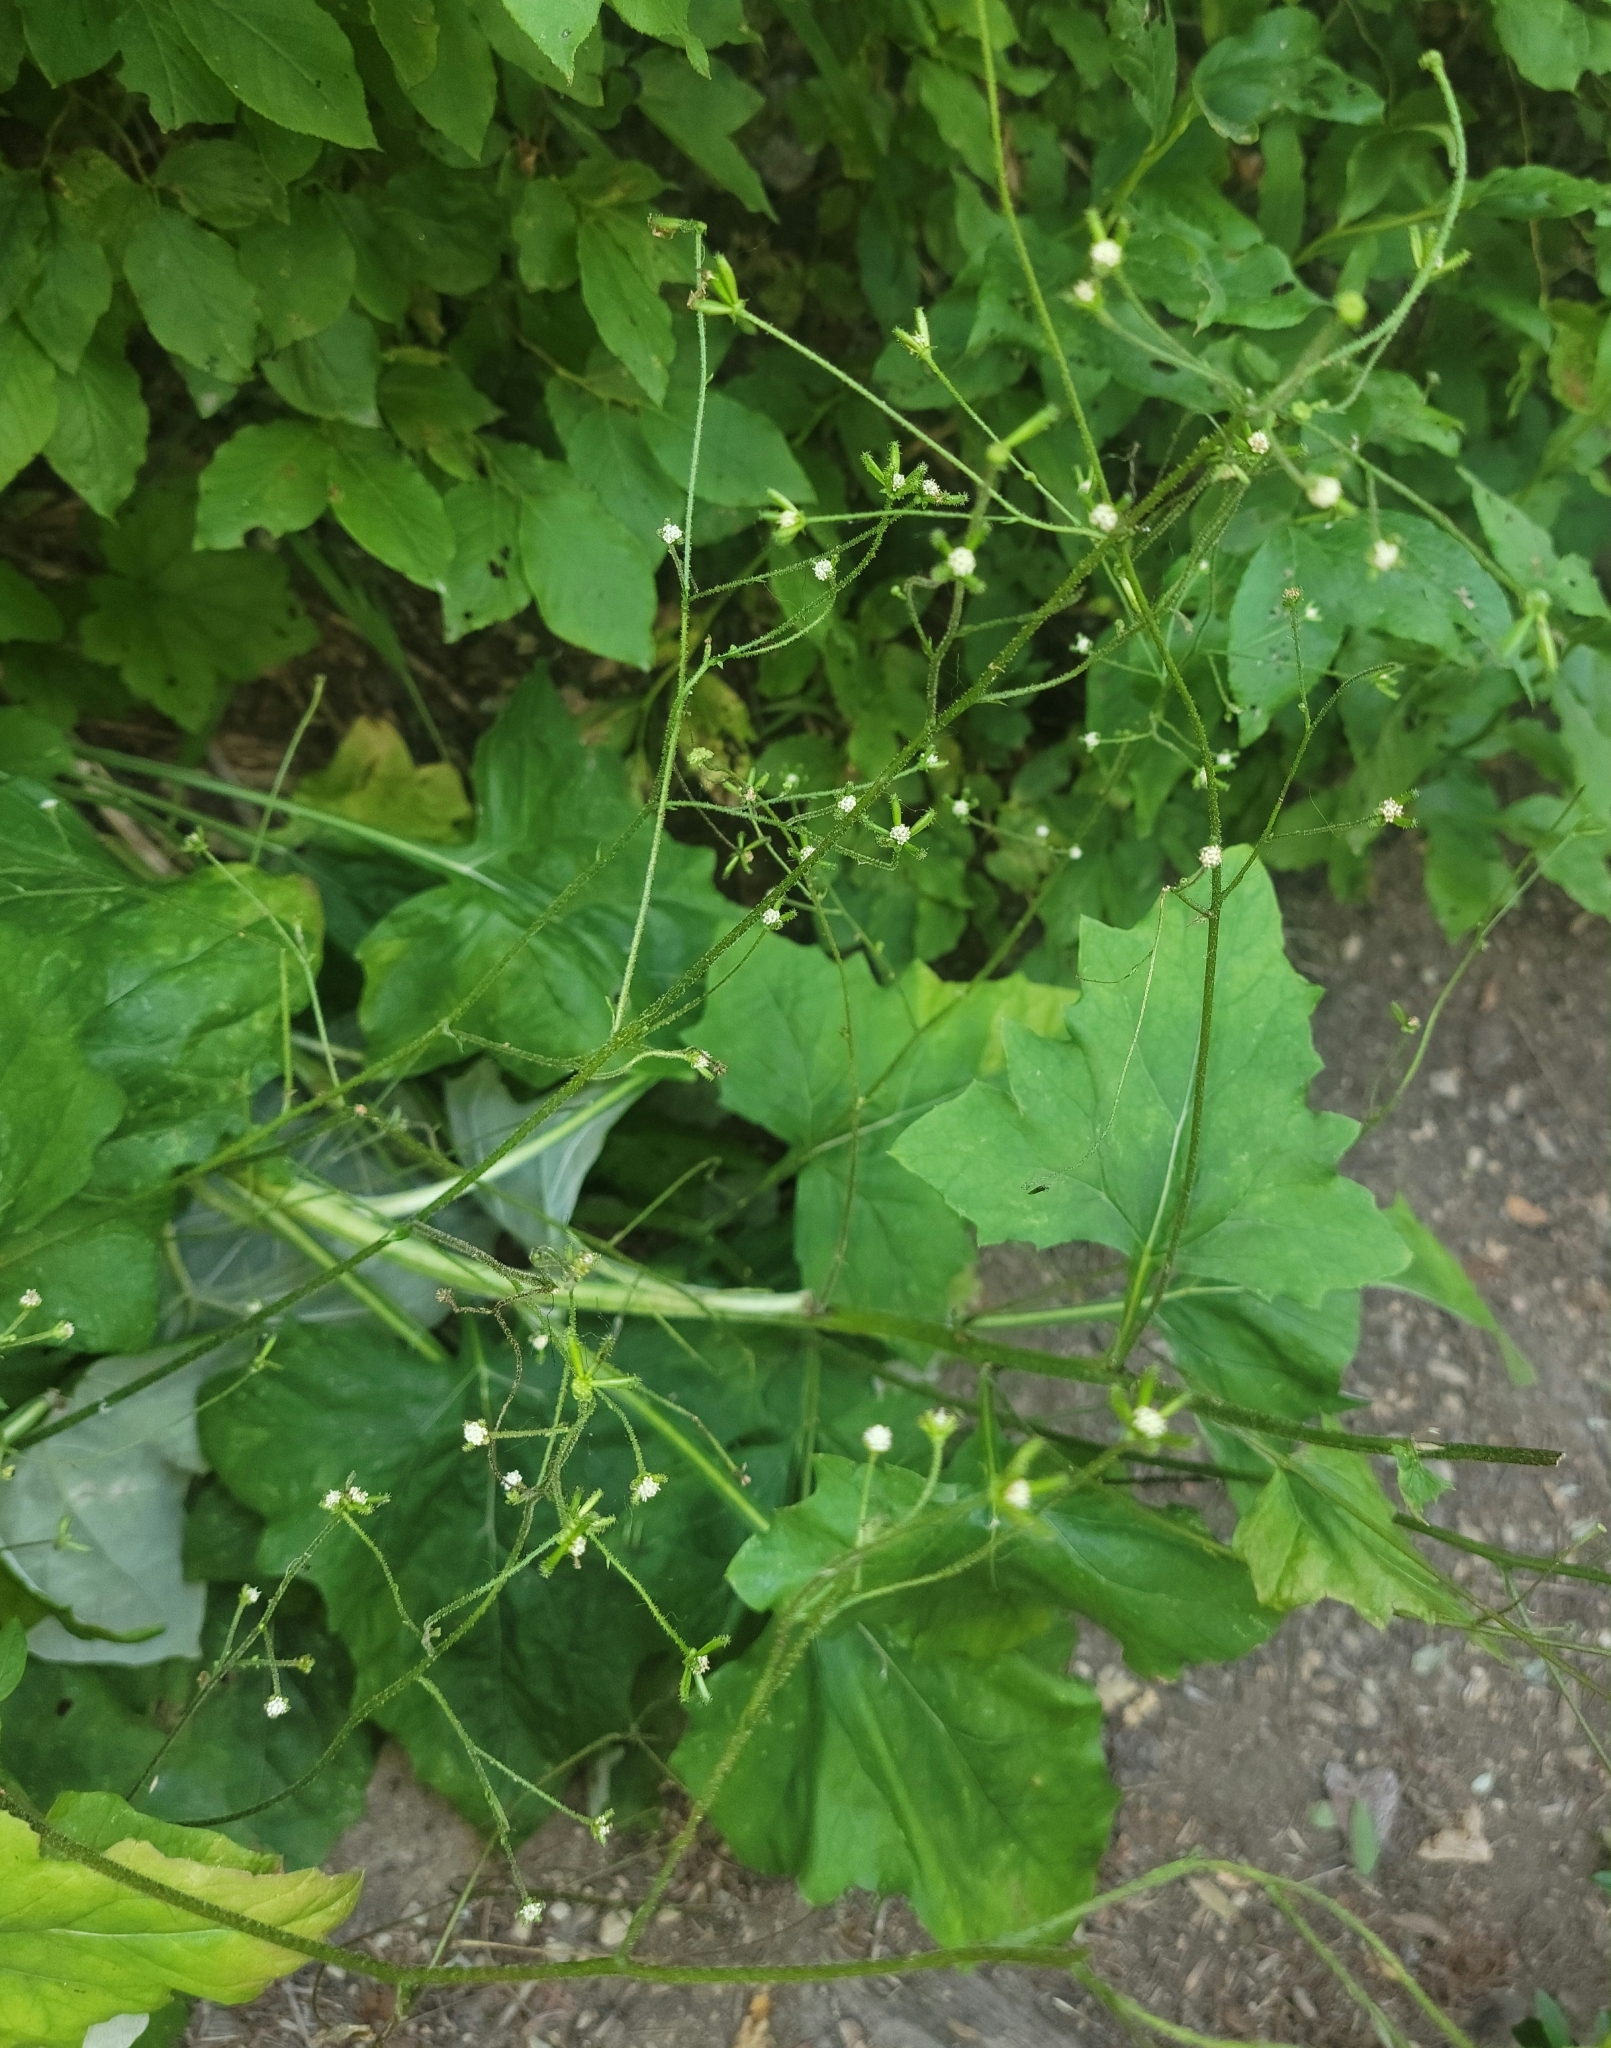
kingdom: Plantae
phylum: Tracheophyta
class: Magnoliopsida
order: Asterales
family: Asteraceae
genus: Adenocaulon
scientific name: Adenocaulon bicolor
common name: Trailplant
